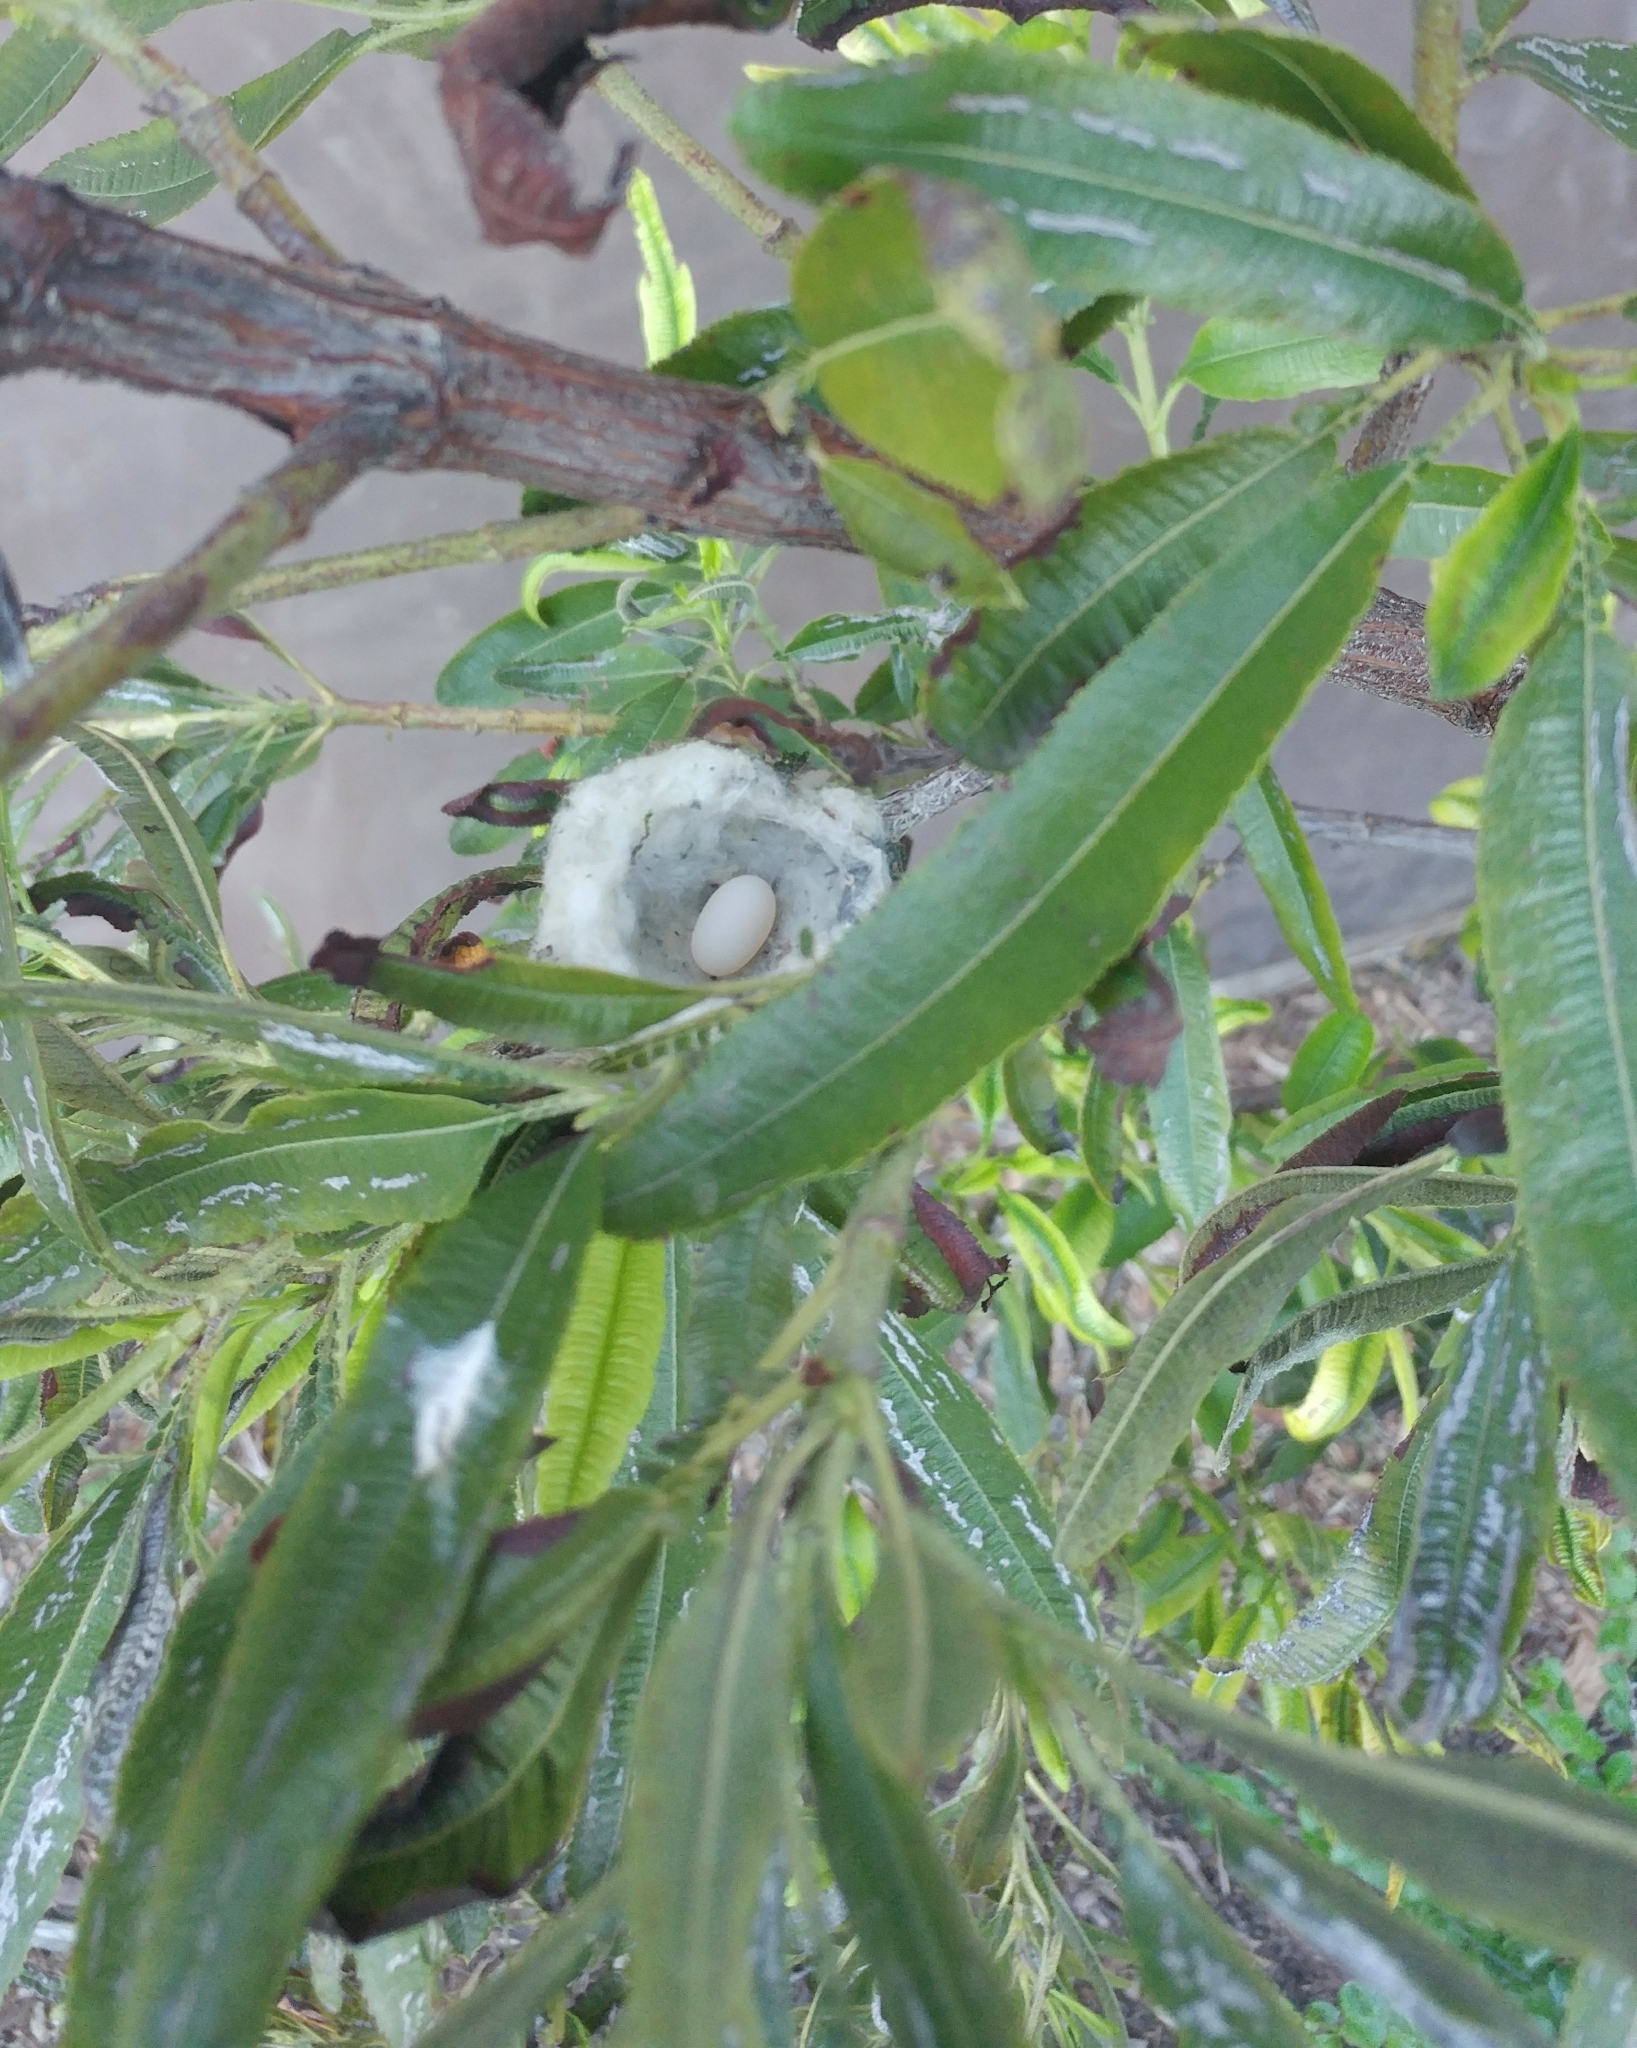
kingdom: Animalia
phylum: Chordata
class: Aves
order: Apodiformes
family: Trochilidae
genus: Calypte
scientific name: Calypte anna
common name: Anna's hummingbird
